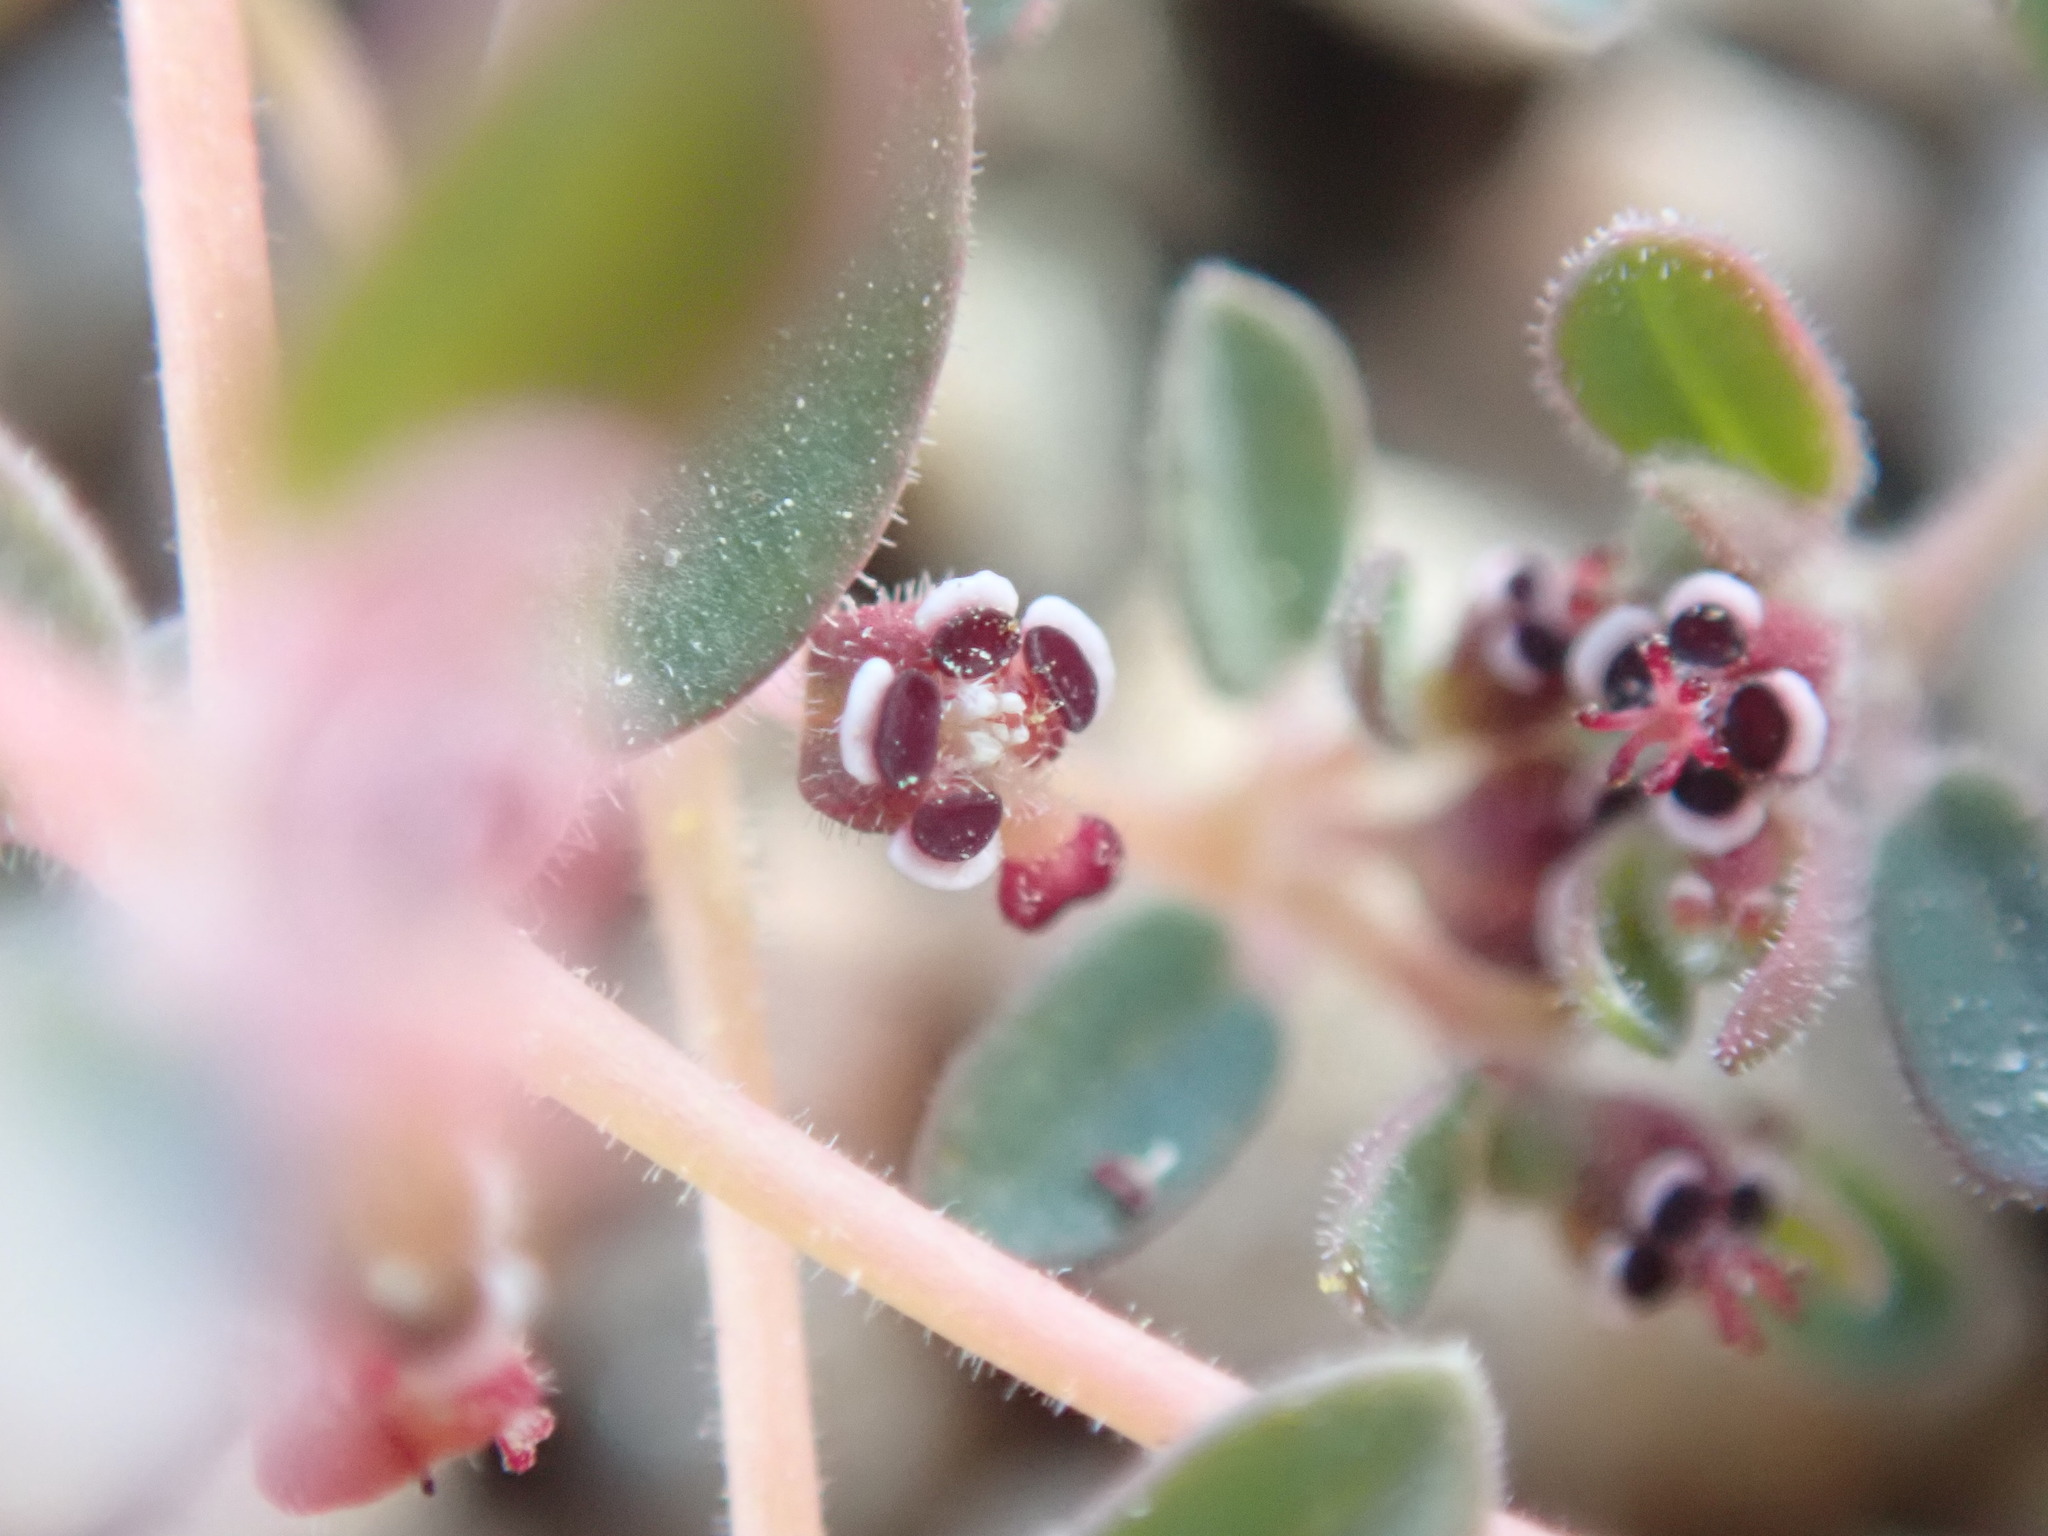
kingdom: Plantae
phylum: Tracheophyta
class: Magnoliopsida
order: Malpighiales
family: Euphorbiaceae
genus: Euphorbia
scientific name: Euphorbia polycarpa
